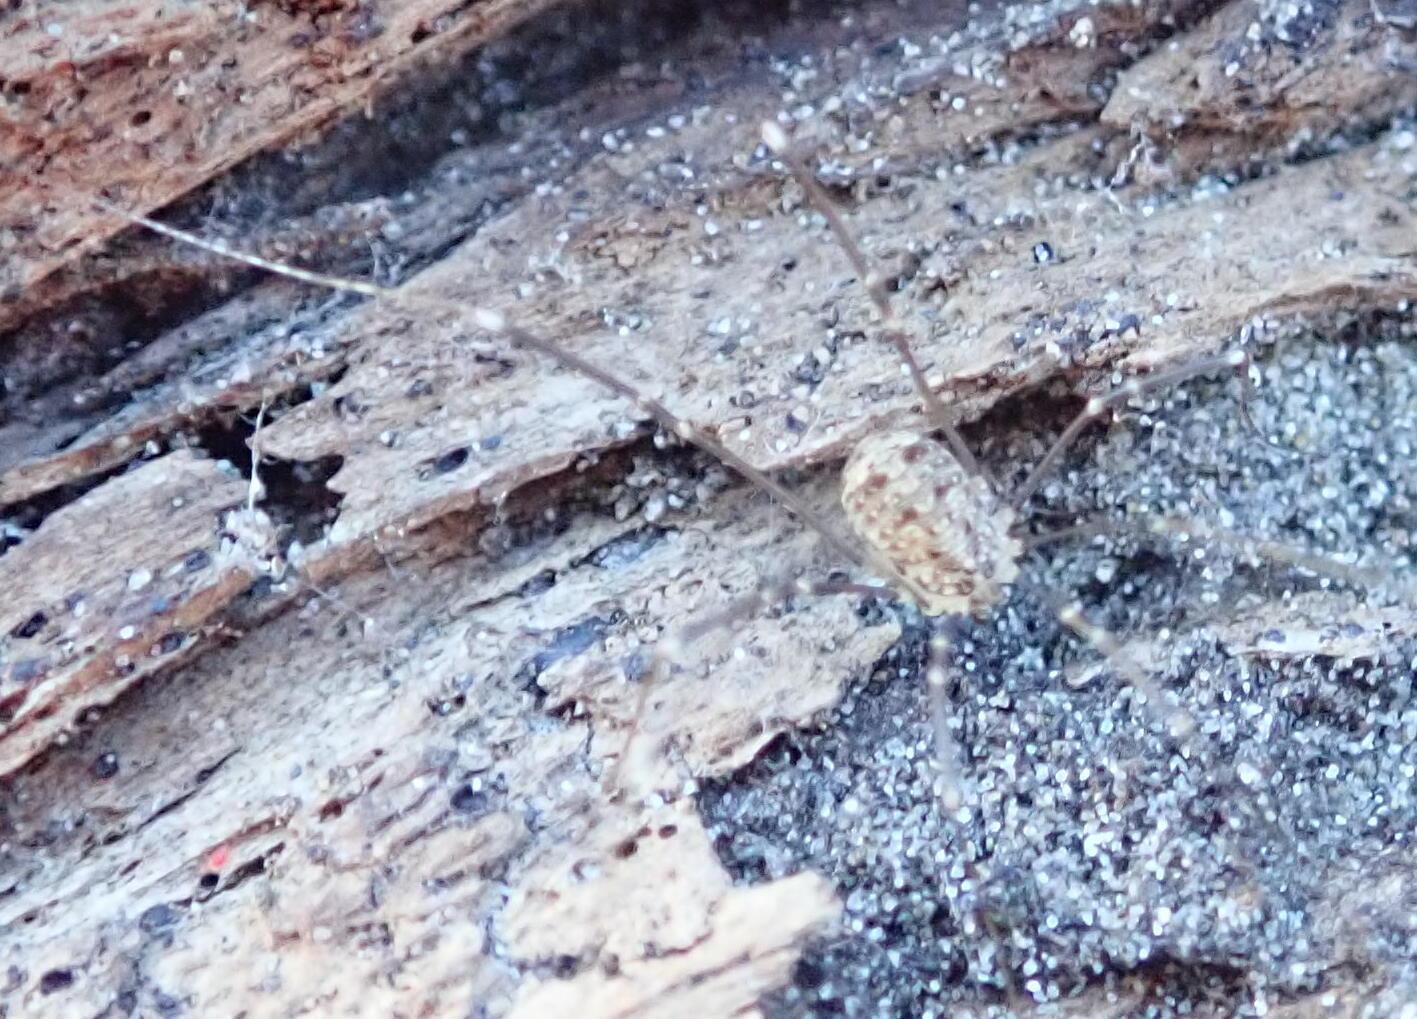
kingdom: Animalia
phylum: Arthropoda
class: Arachnida
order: Opiliones
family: Sclerosomatidae
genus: Nelima
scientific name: Nelima doriae
